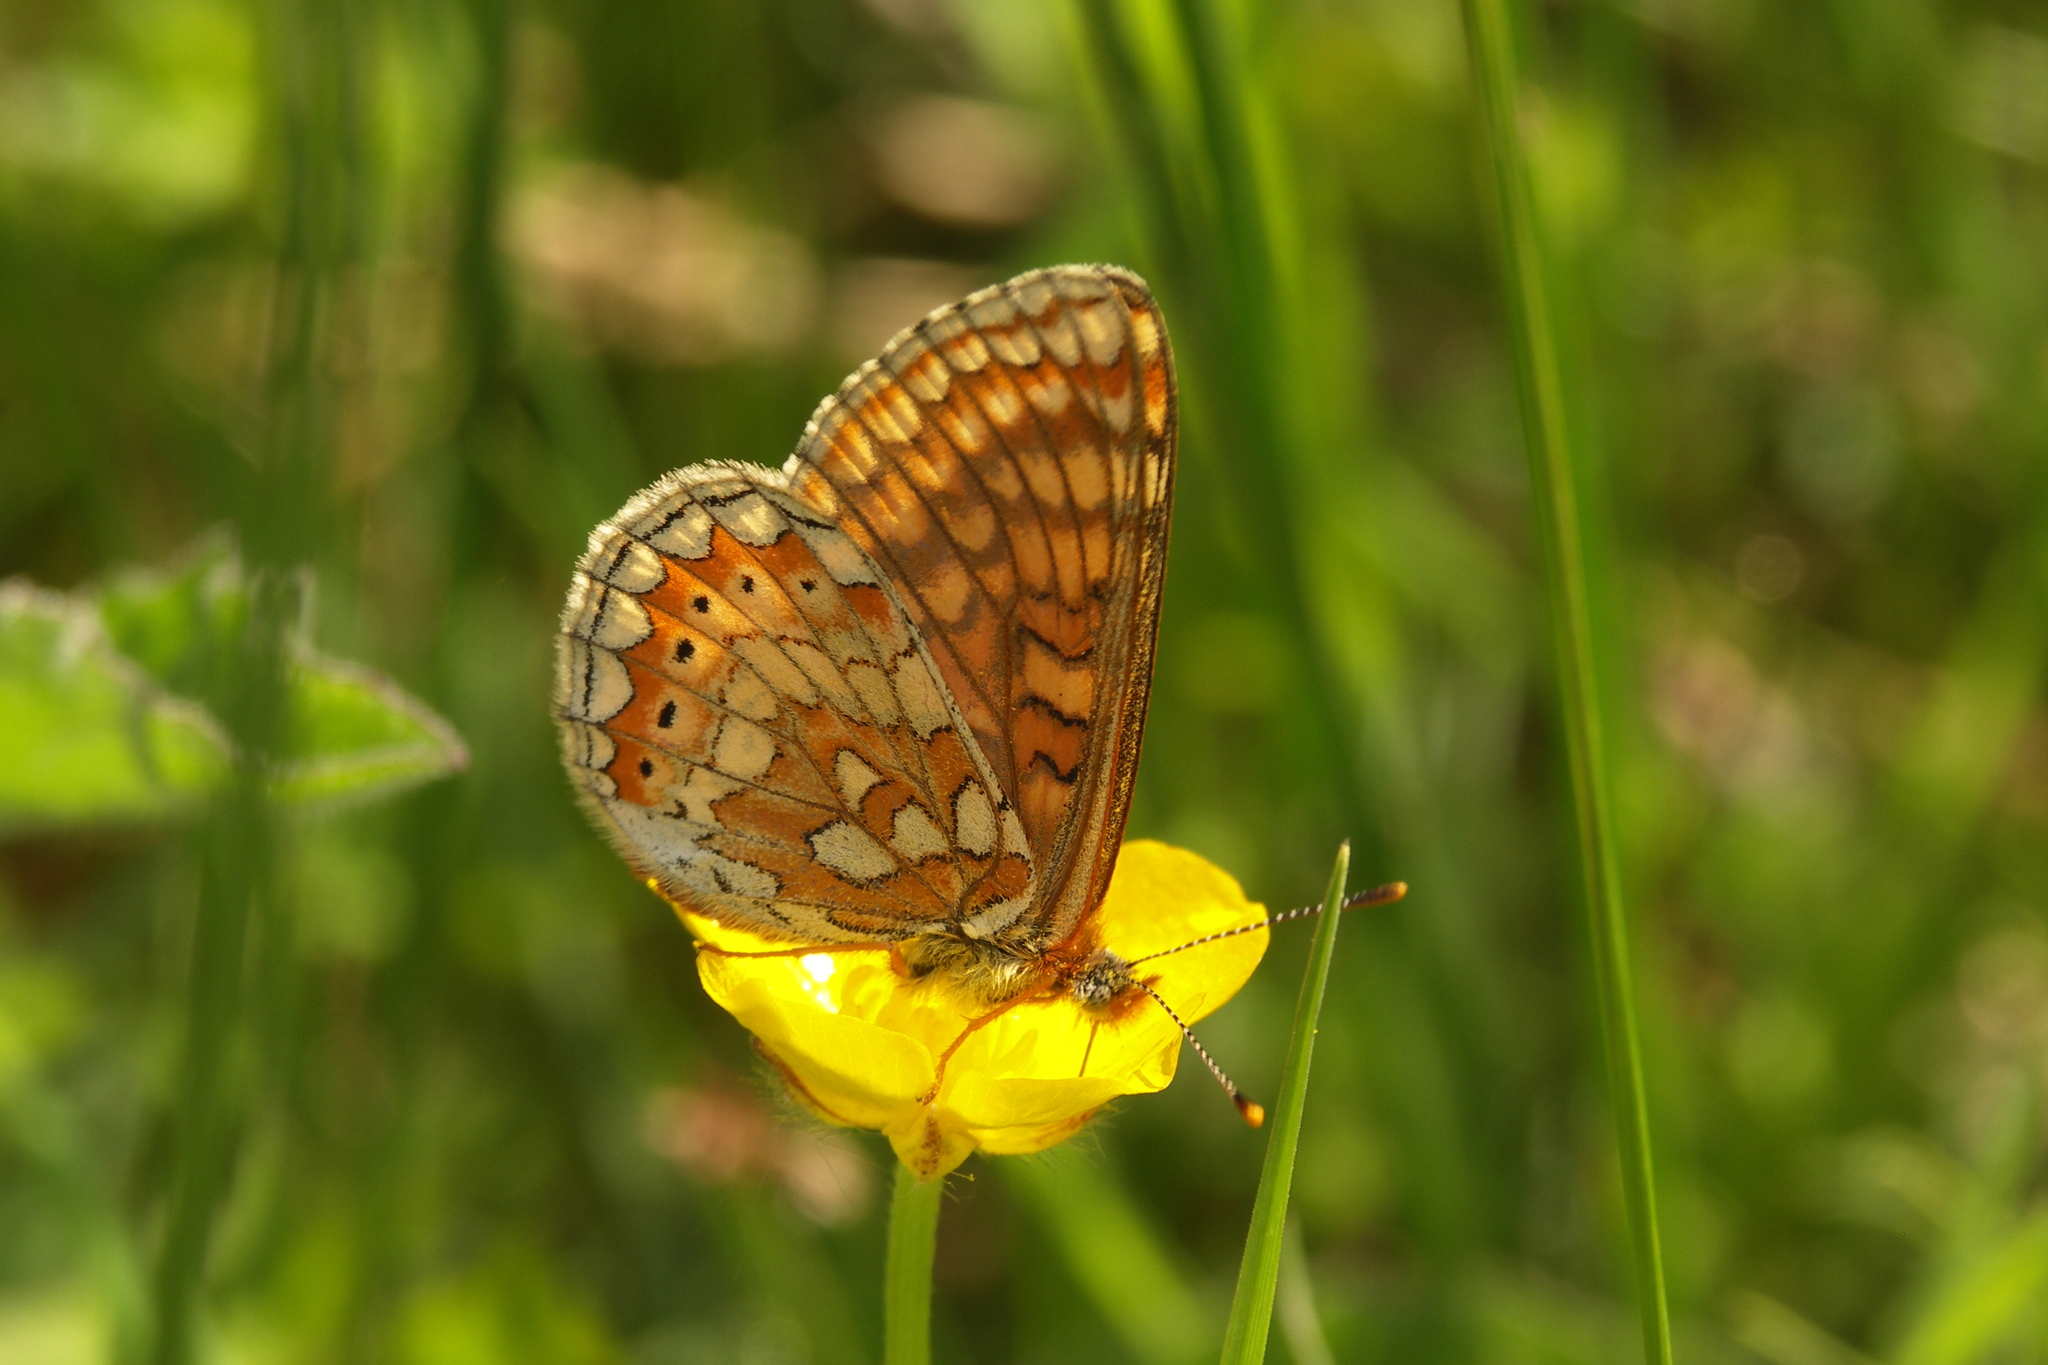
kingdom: Animalia
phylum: Arthropoda
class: Insecta
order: Lepidoptera
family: Nymphalidae
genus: Euphydryas
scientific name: Euphydryas aurinia
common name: Marsh fritillary
